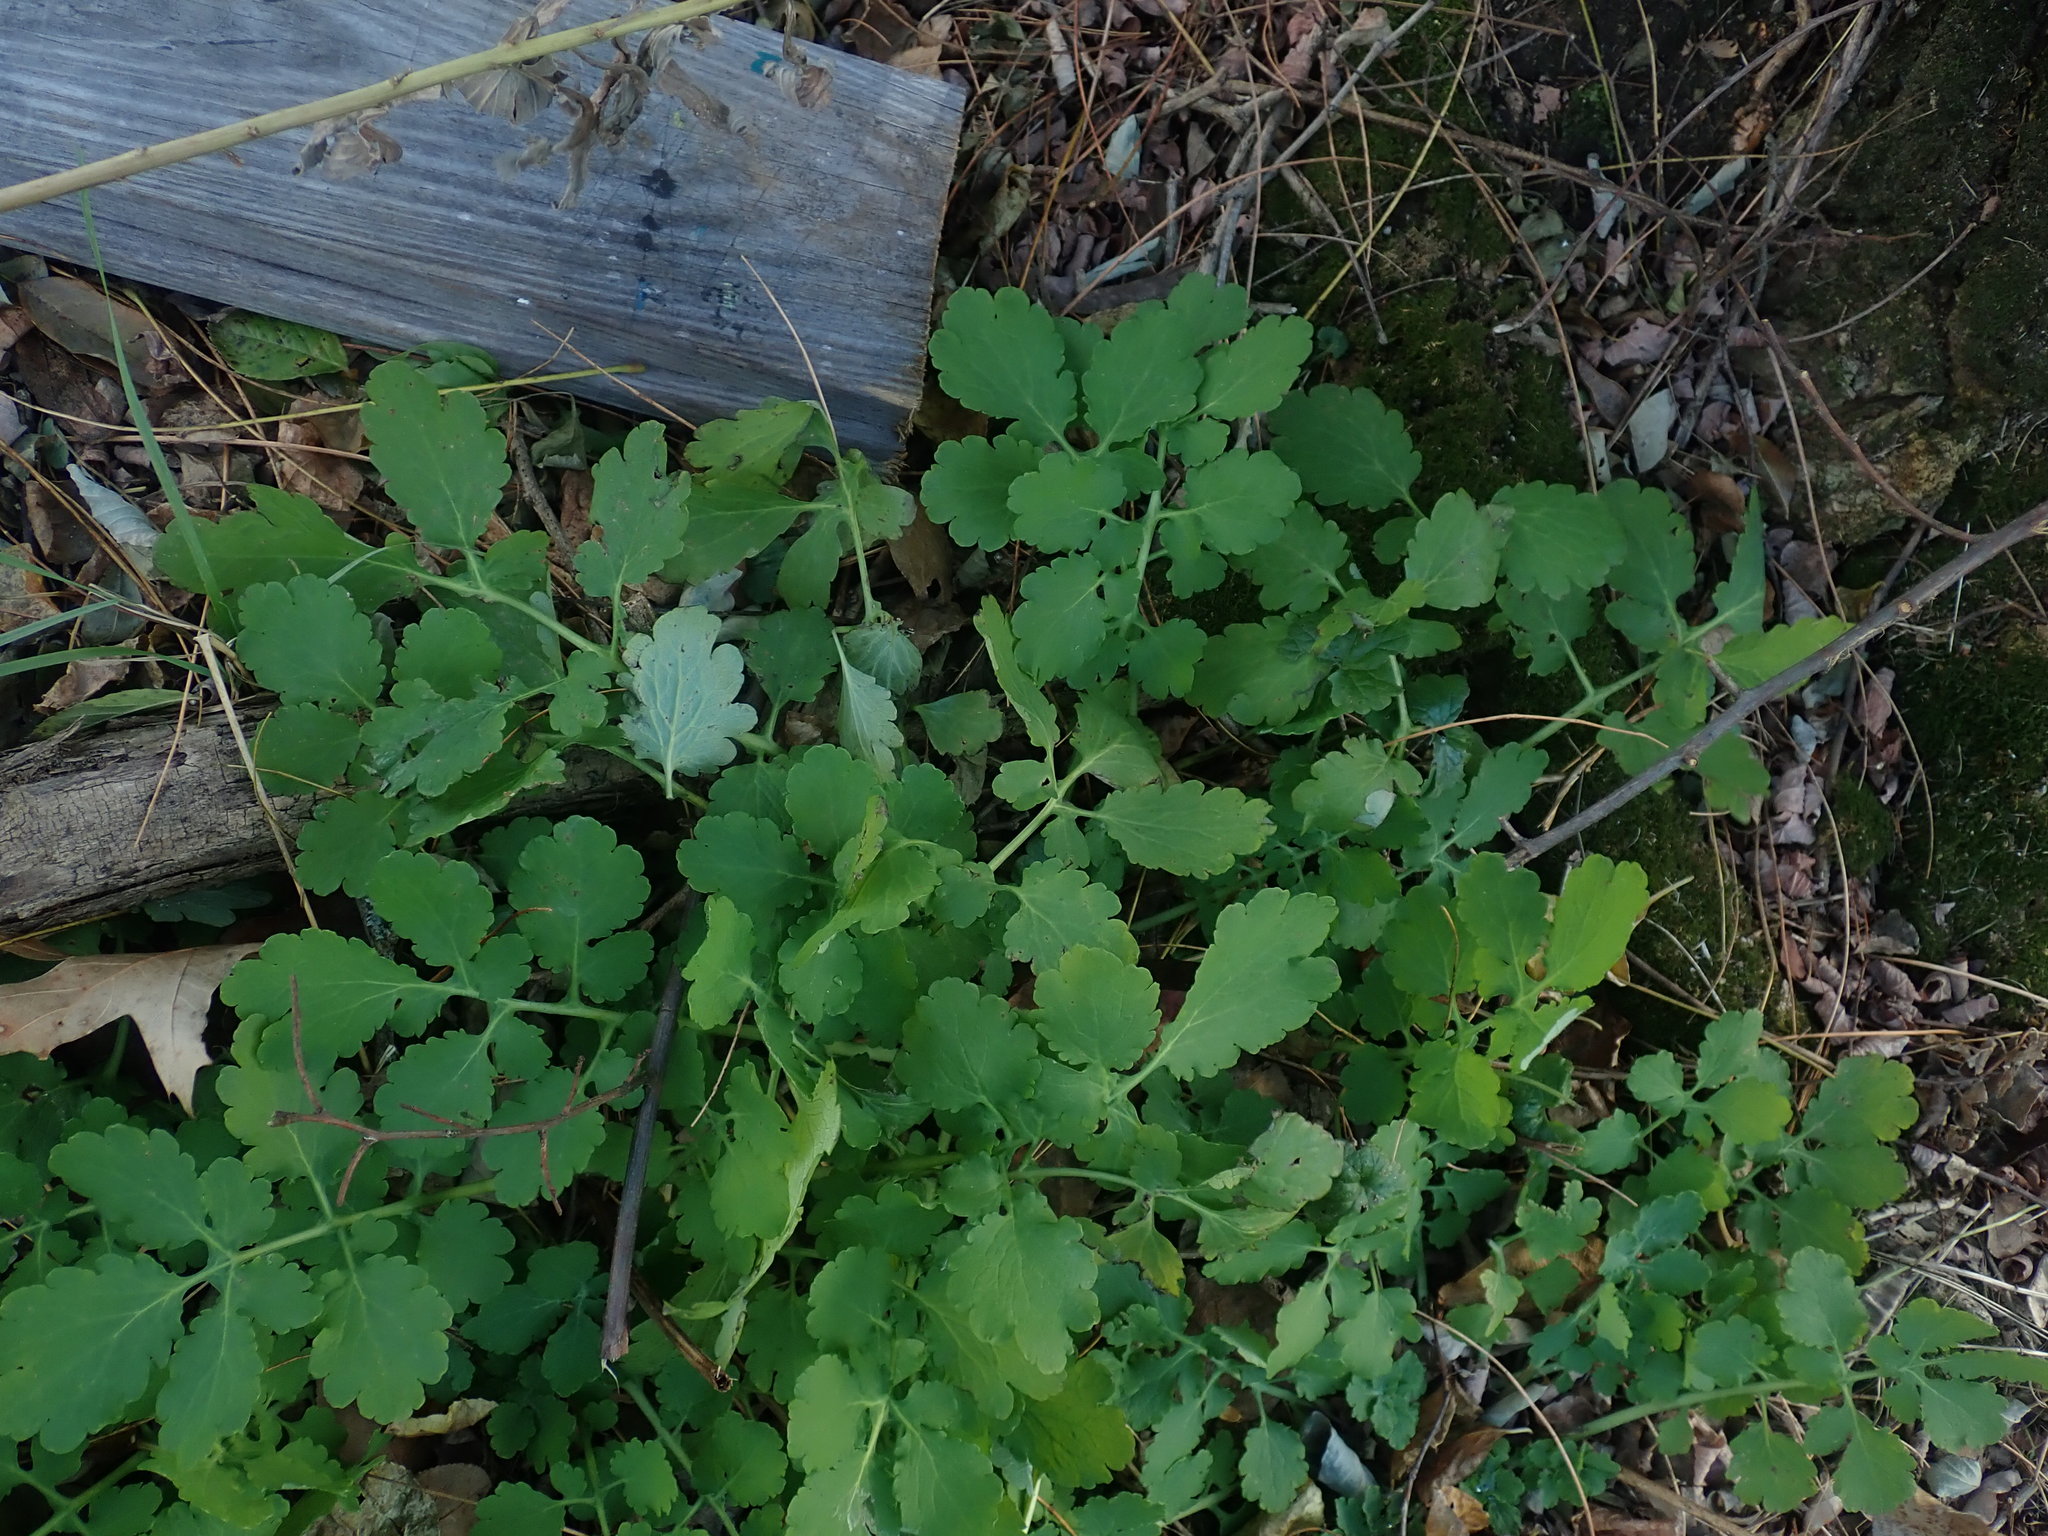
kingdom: Plantae
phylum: Tracheophyta
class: Magnoliopsida
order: Ranunculales
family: Papaveraceae
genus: Chelidonium
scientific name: Chelidonium majus
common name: Greater celandine
